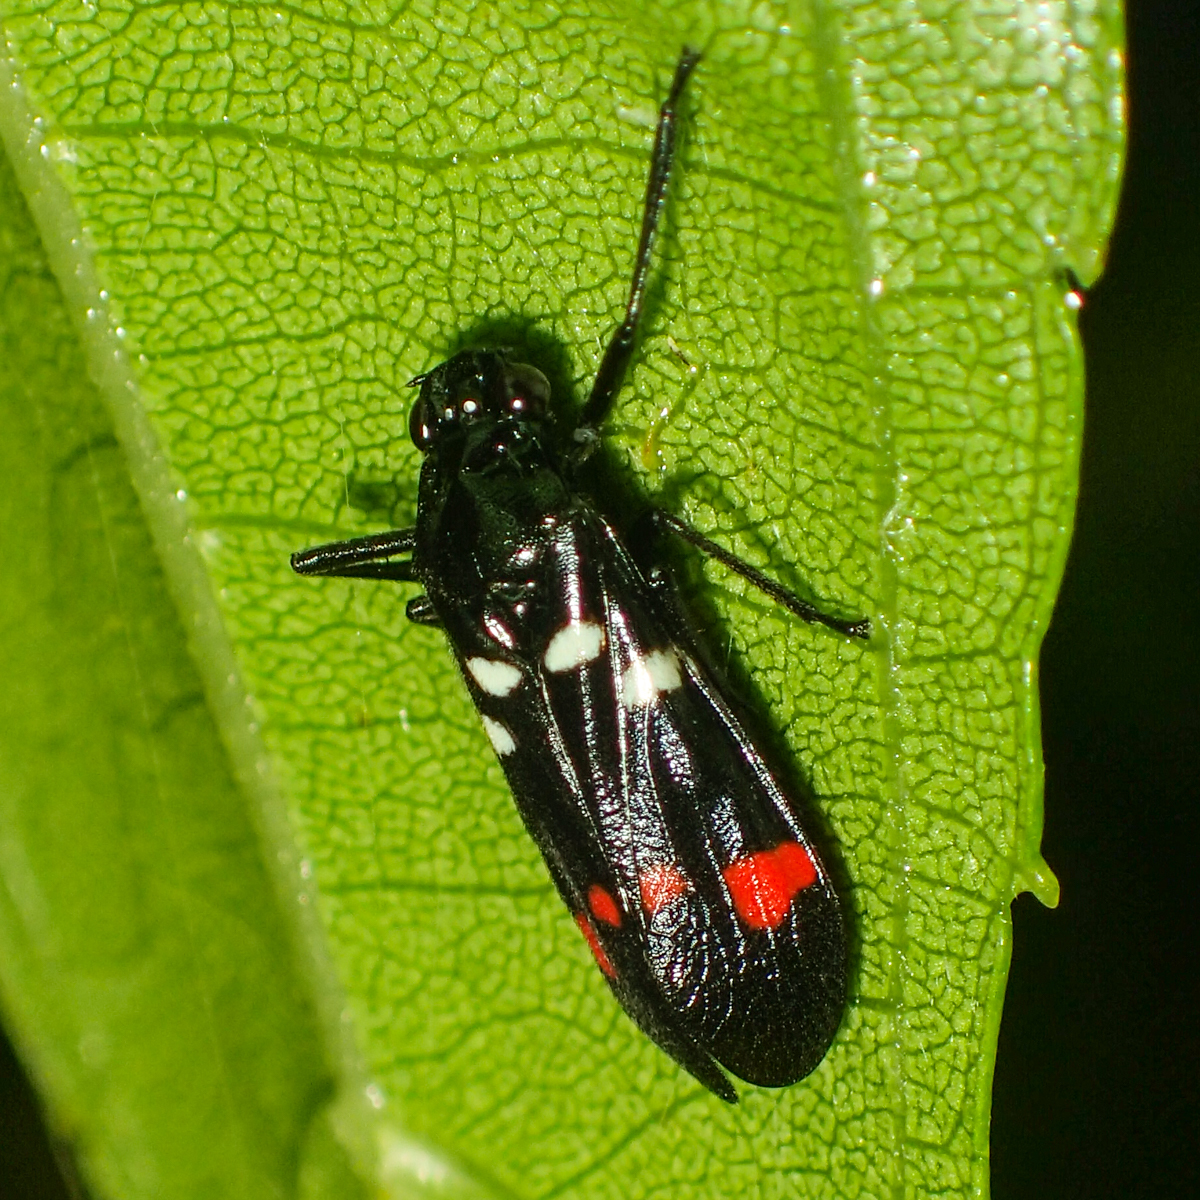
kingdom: Animalia
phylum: Arthropoda
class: Insecta
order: Hemiptera
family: Cercopidae
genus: Callitettix
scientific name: Callitettix versicolor
